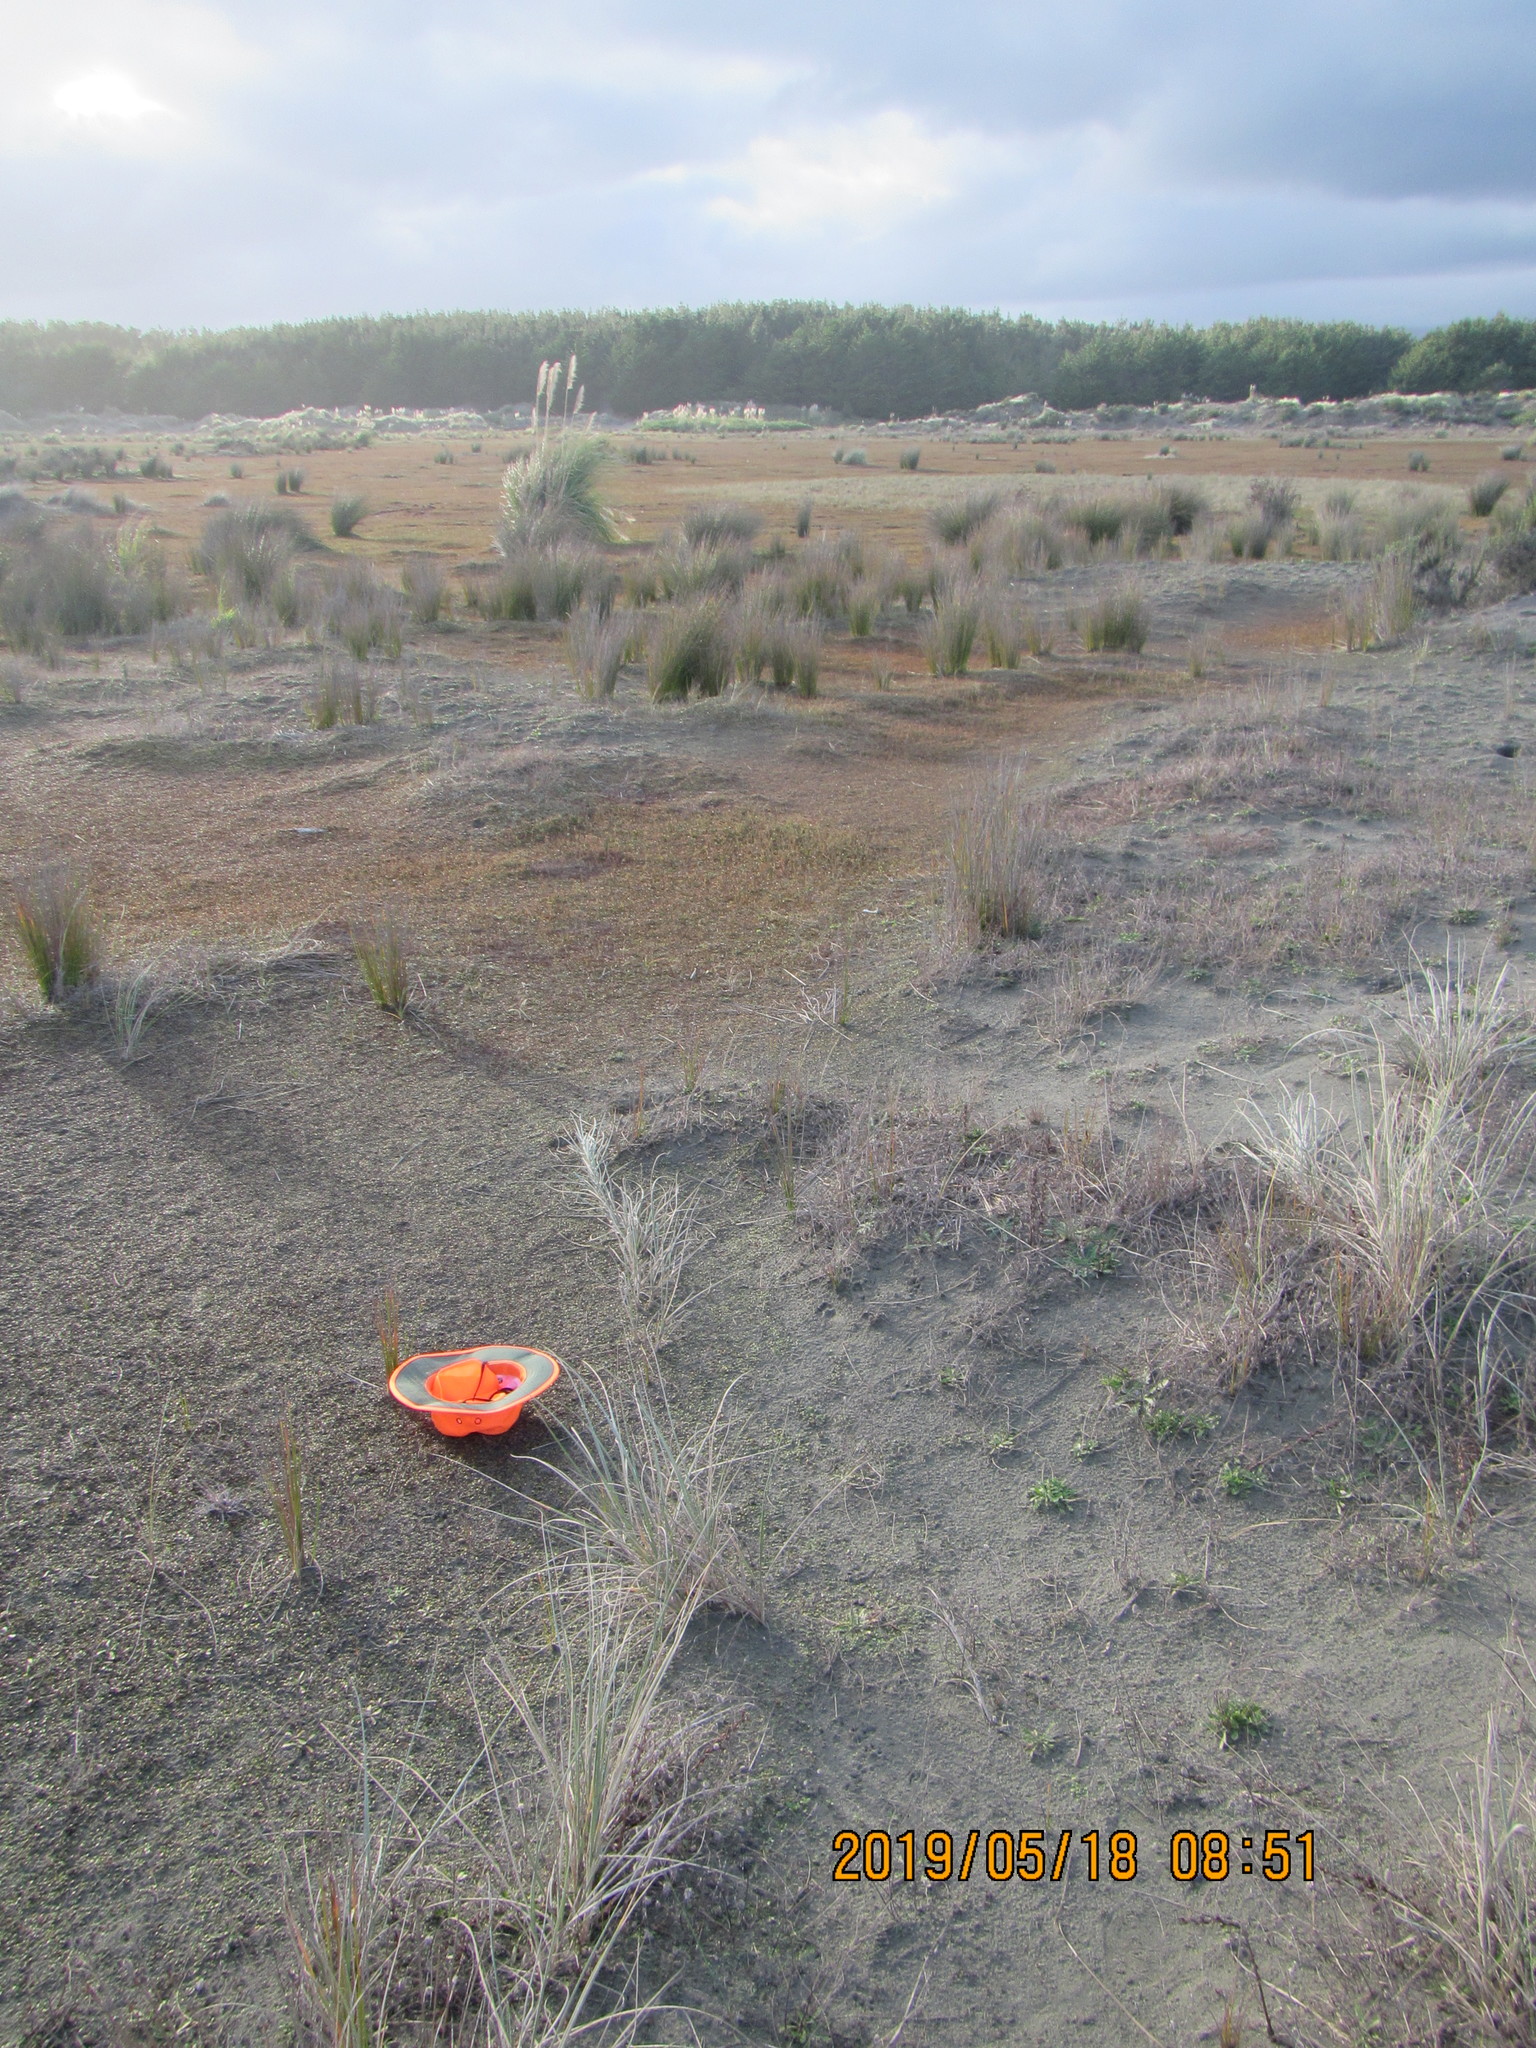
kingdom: Plantae
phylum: Tracheophyta
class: Magnoliopsida
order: Asterales
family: Goodeniaceae
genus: Goodenia
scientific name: Goodenia heenanii
